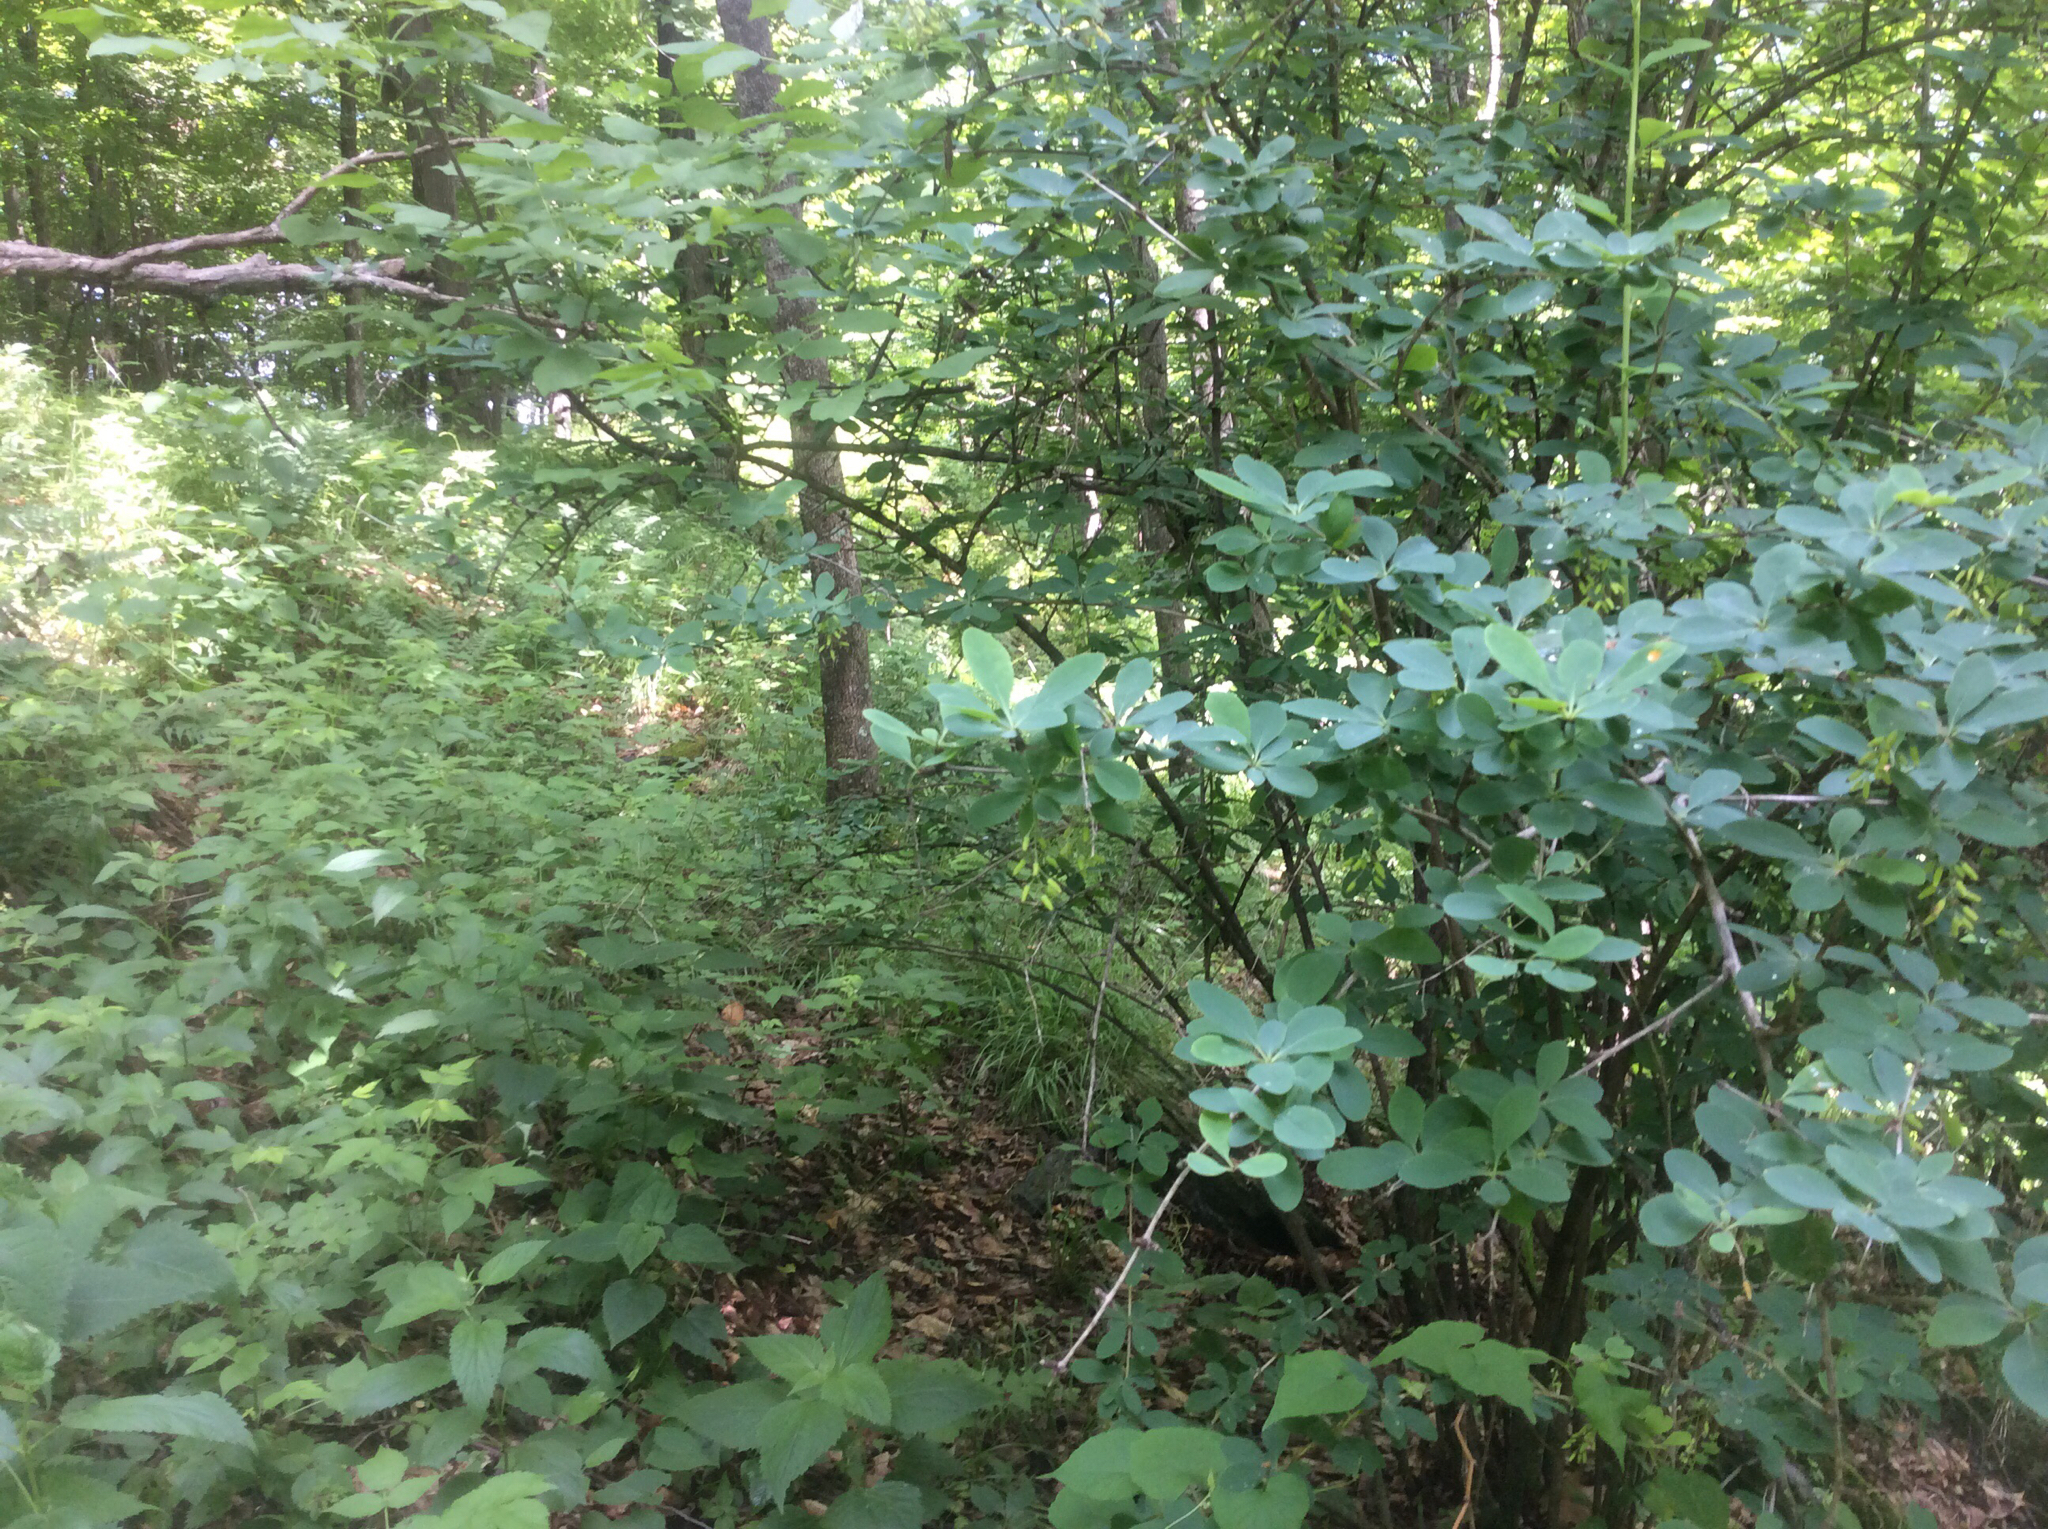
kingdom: Plantae
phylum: Tracheophyta
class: Magnoliopsida
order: Ranunculales
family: Berberidaceae
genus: Berberis
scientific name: Berberis vulgaris
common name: Barberry
